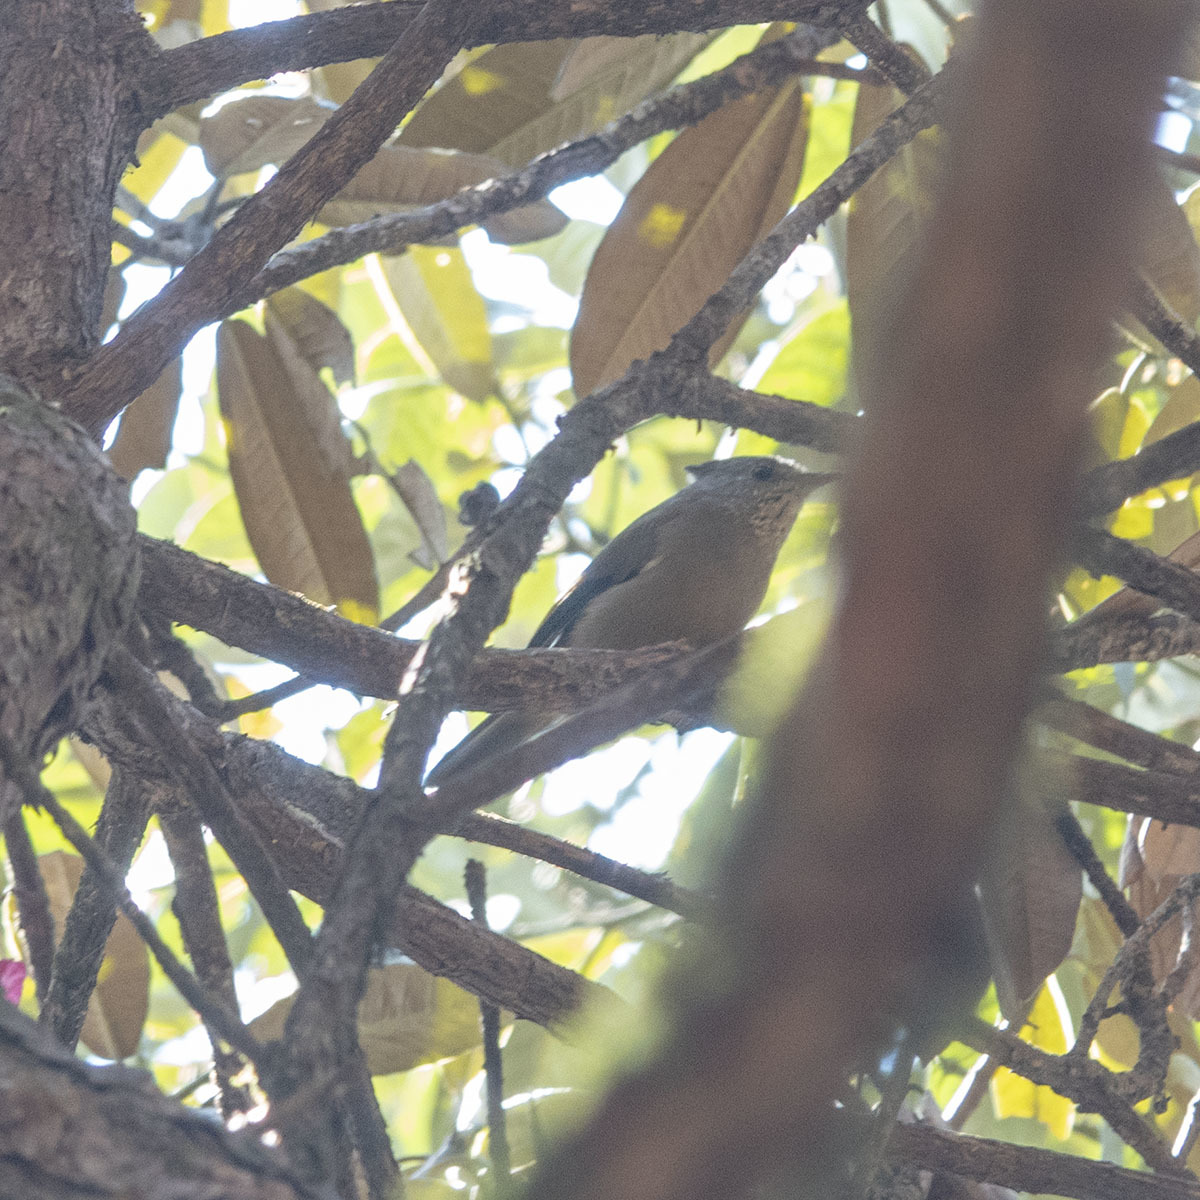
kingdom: Animalia
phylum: Chordata
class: Aves
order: Passeriformes
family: Zosteropidae
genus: Yuhina
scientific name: Yuhina gularis
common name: Stripe-throated yuhina
